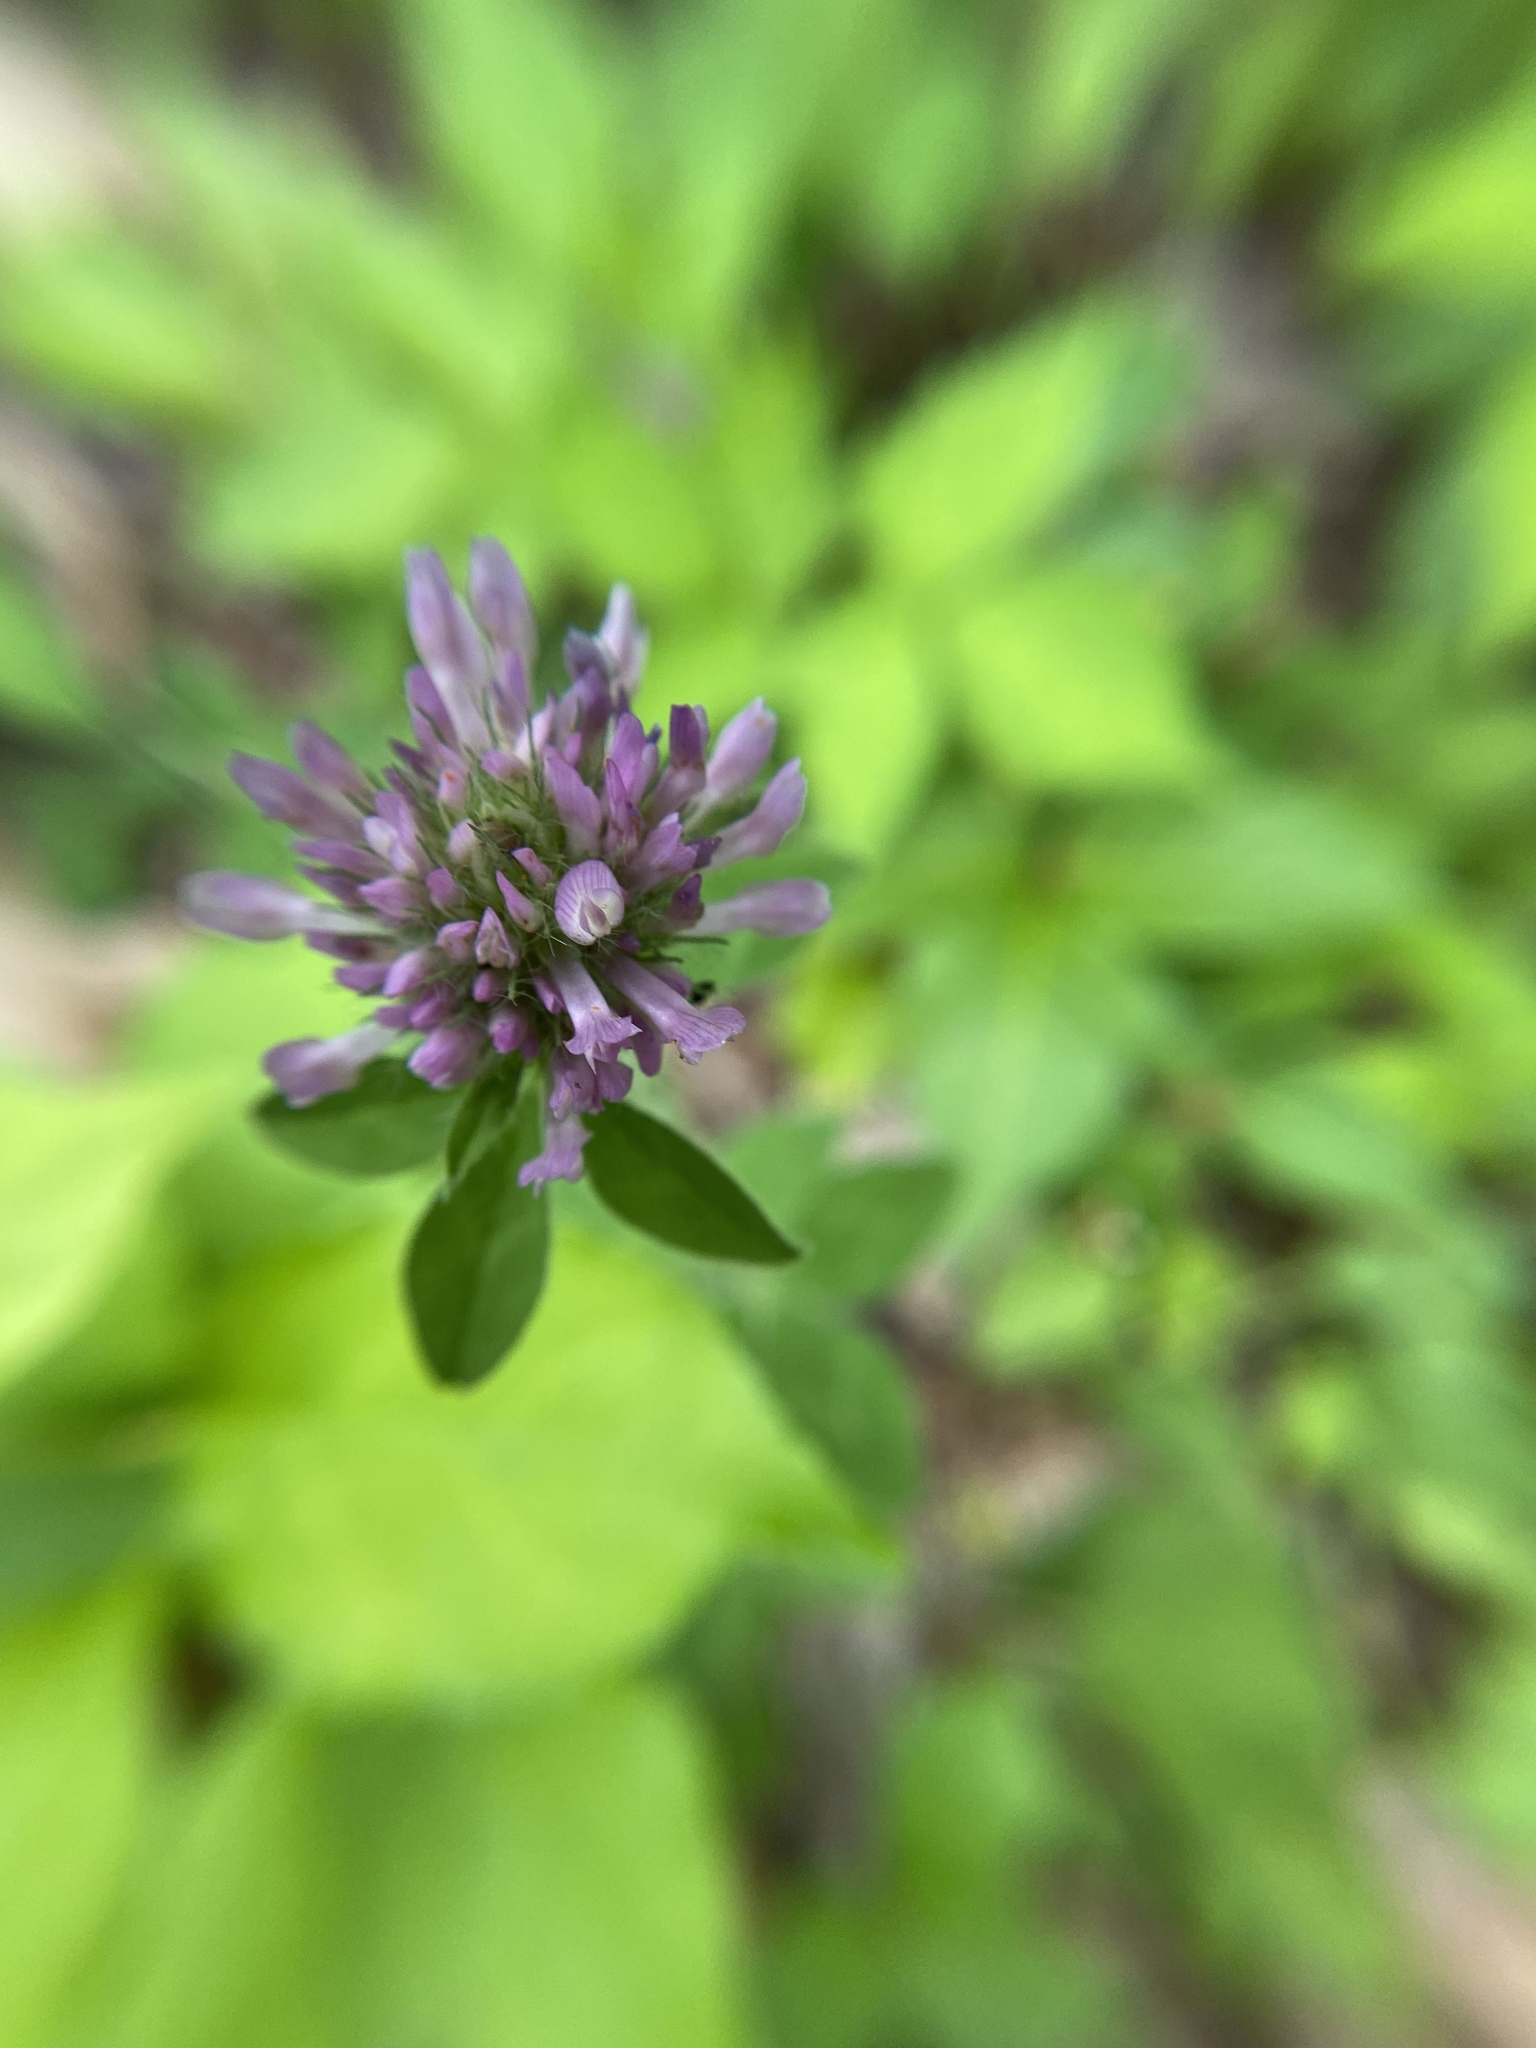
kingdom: Plantae
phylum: Tracheophyta
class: Magnoliopsida
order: Fabales
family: Fabaceae
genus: Trifolium
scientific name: Trifolium pratense
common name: Red clover
